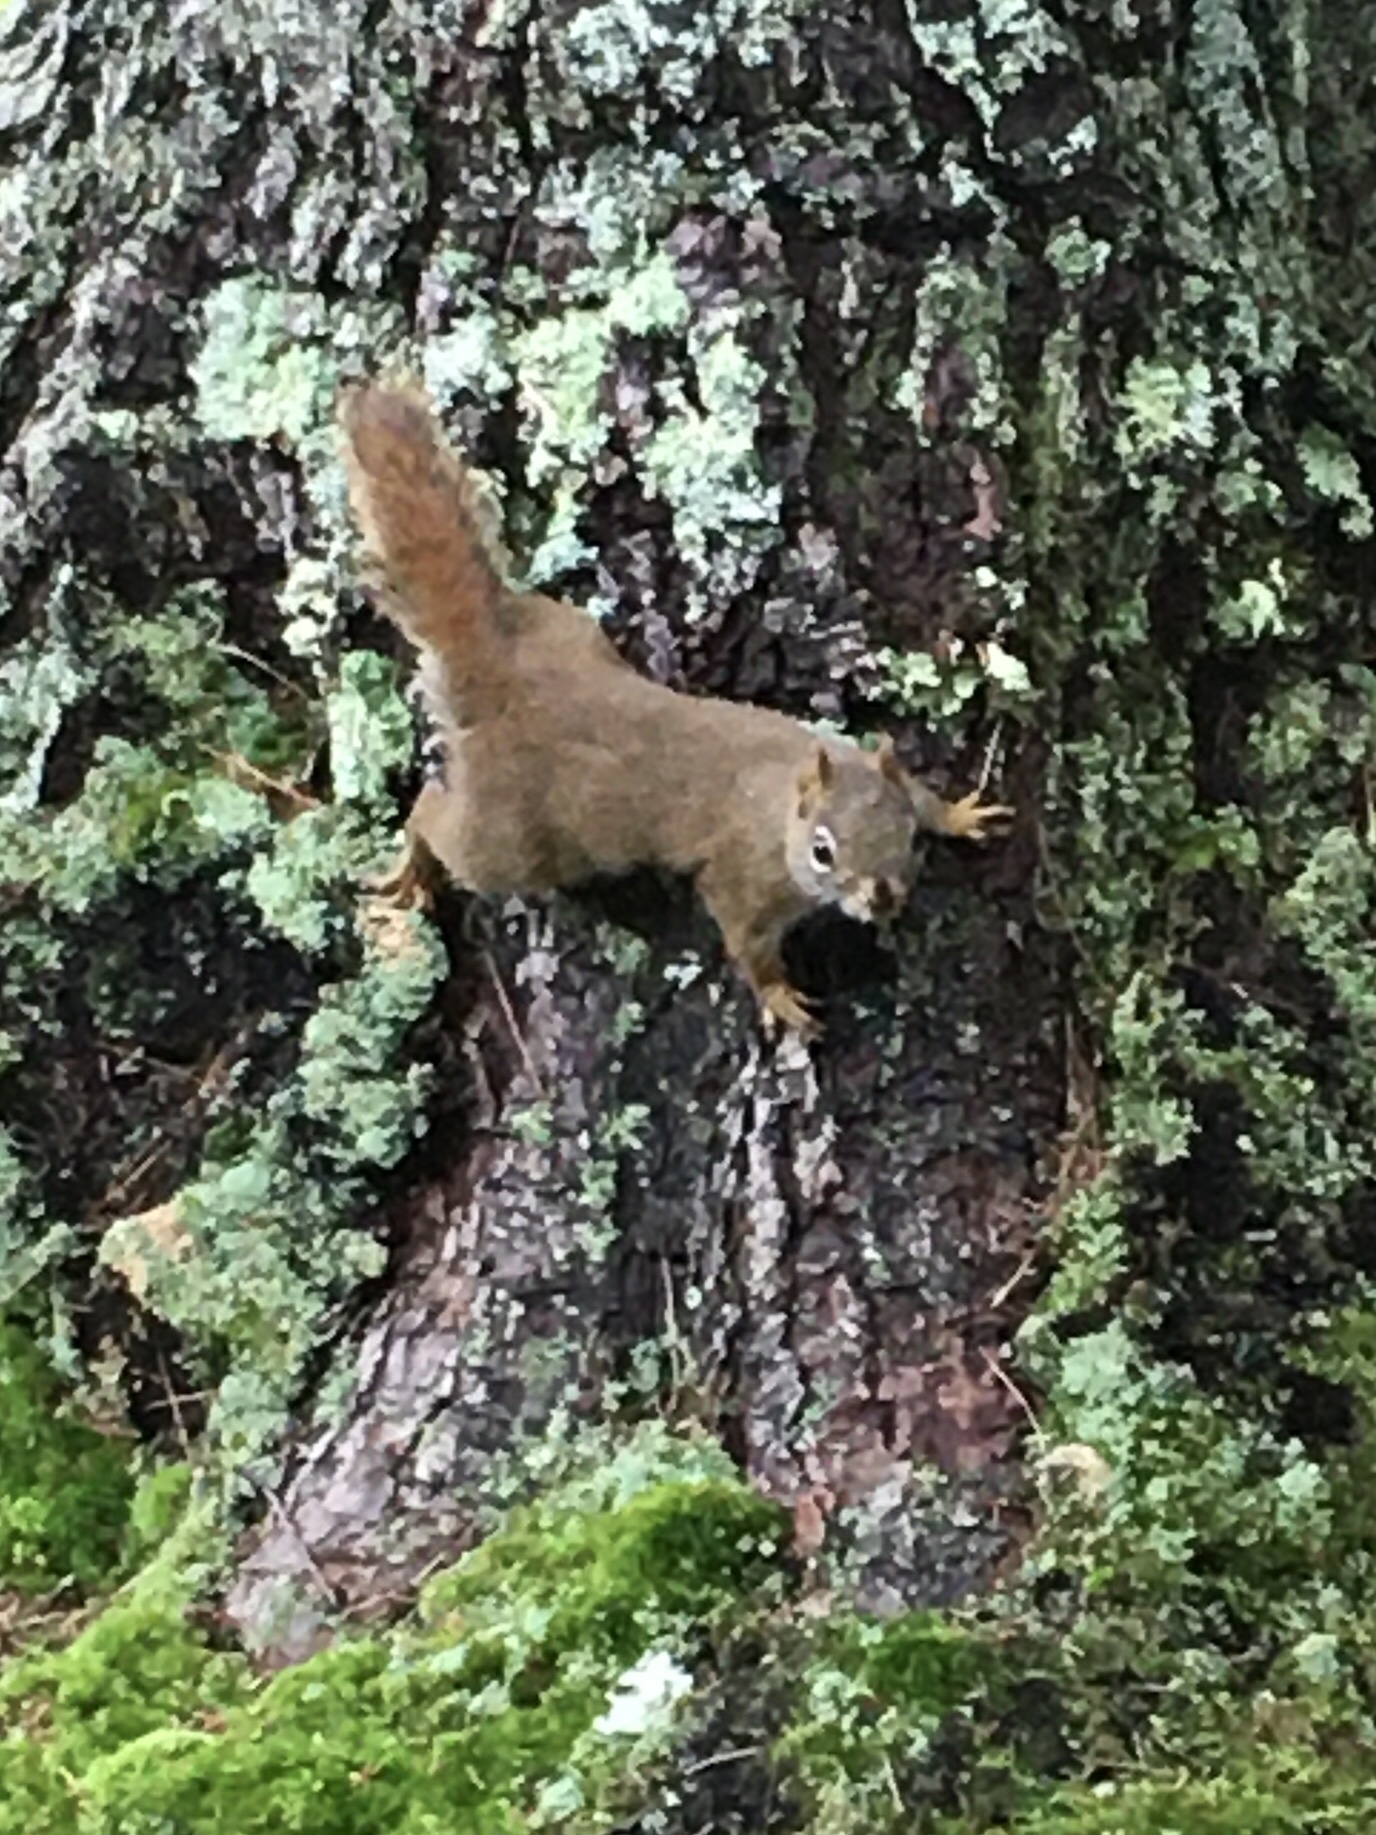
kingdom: Animalia
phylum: Chordata
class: Mammalia
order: Rodentia
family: Sciuridae
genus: Tamiasciurus
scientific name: Tamiasciurus hudsonicus
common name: Red squirrel
